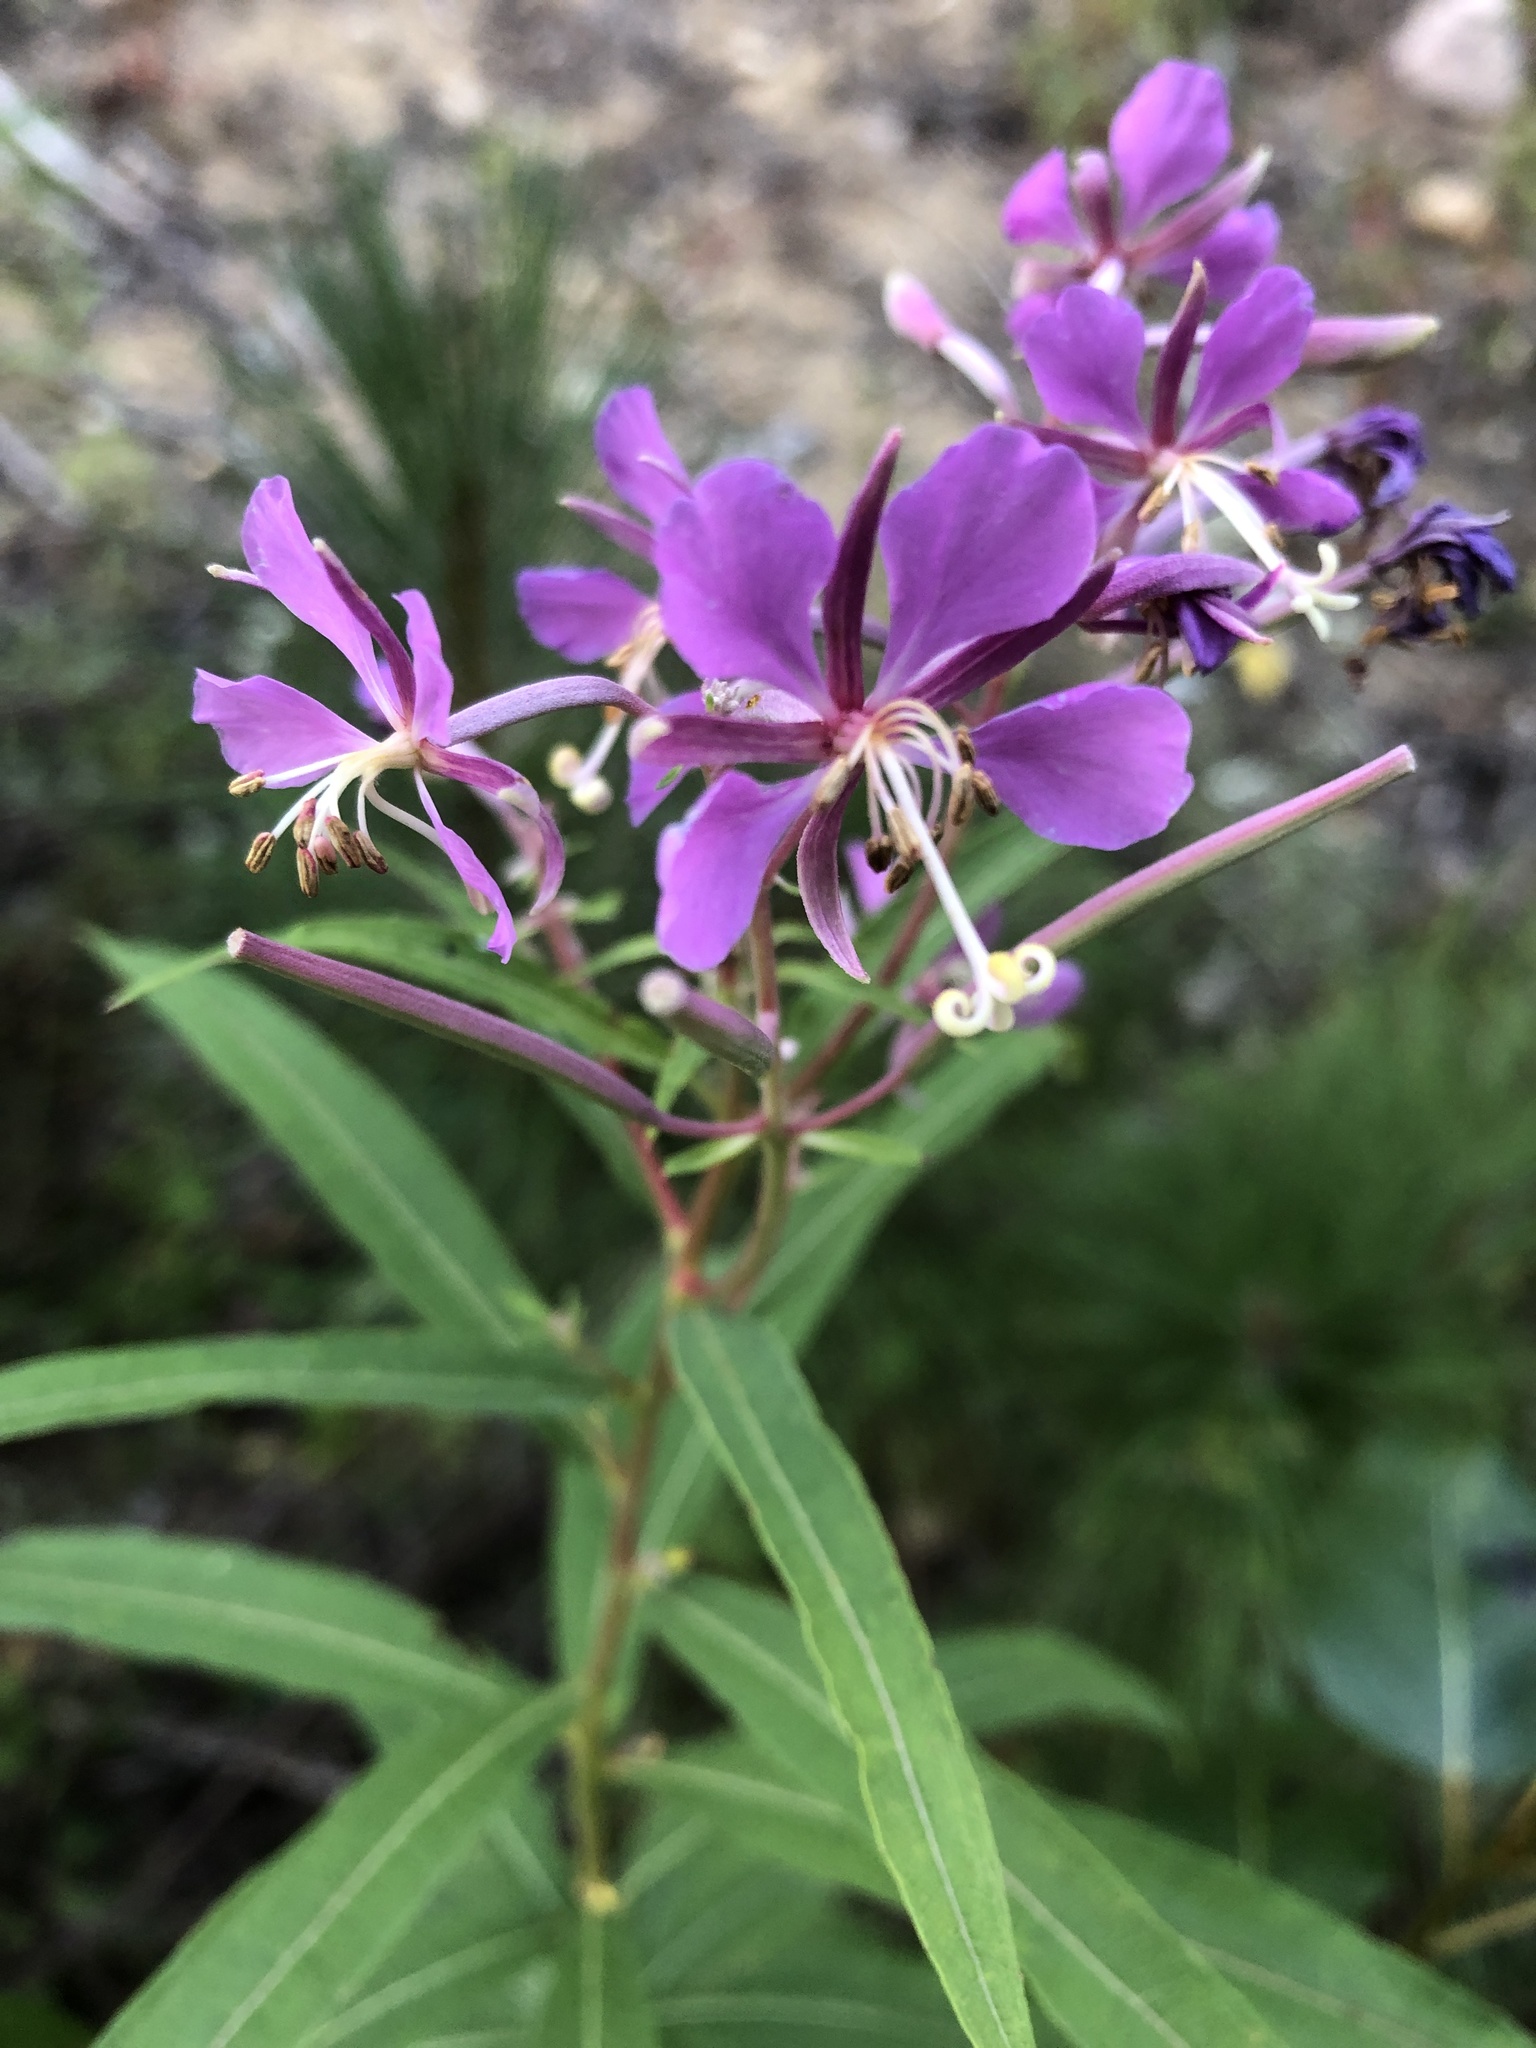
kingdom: Plantae
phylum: Tracheophyta
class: Magnoliopsida
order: Myrtales
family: Onagraceae
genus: Chamaenerion
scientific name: Chamaenerion angustifolium
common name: Fireweed
